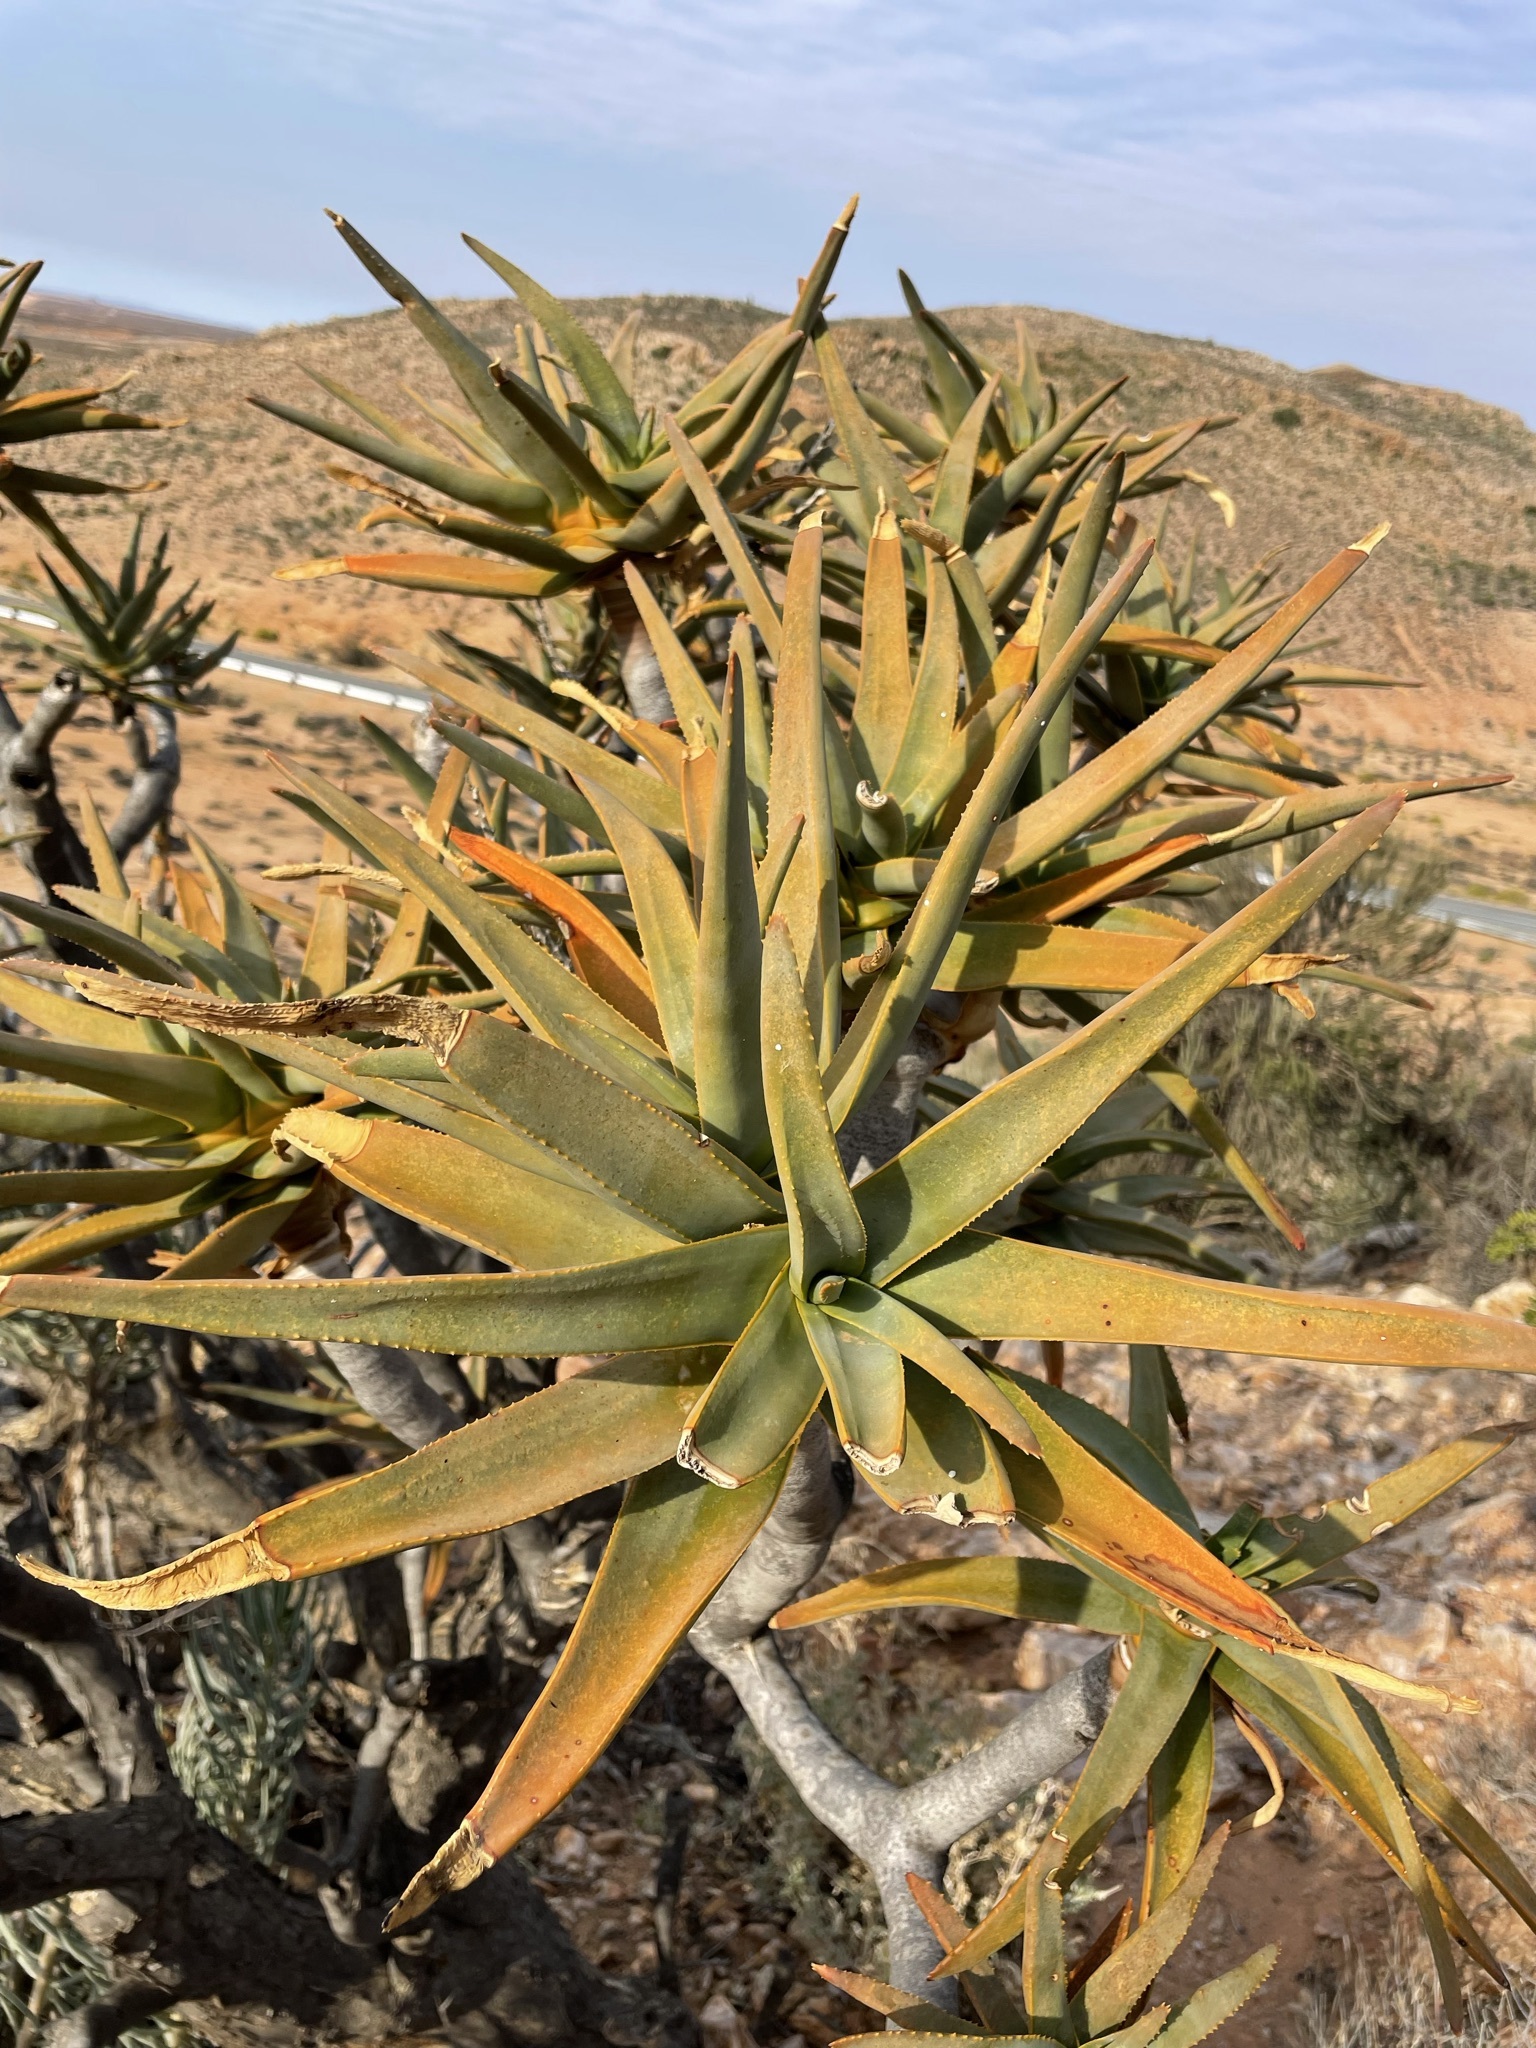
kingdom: Plantae
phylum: Tracheophyta
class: Liliopsida
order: Asparagales
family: Asphodelaceae
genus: Aloidendron
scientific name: Aloidendron dichotomum
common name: Quiver tree
